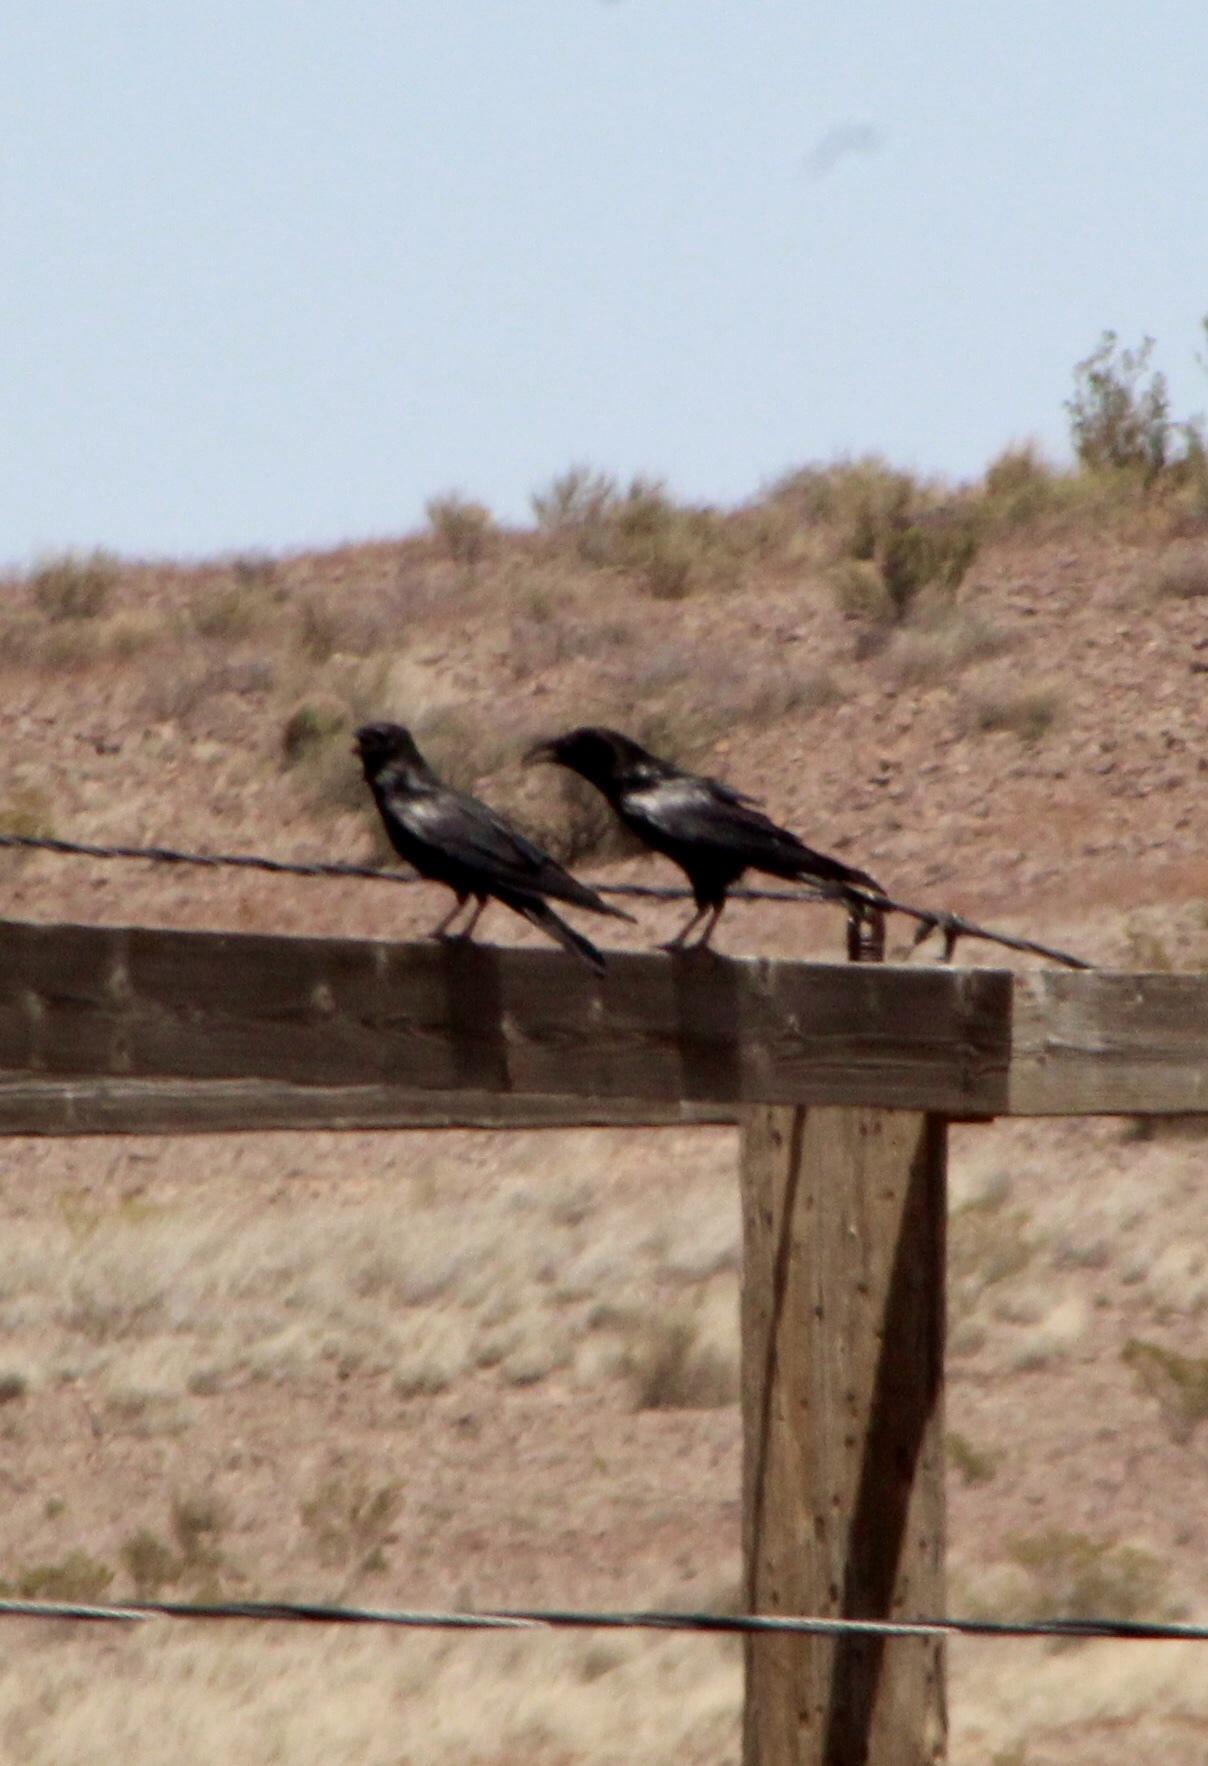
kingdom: Animalia
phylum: Chordata
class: Aves
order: Passeriformes
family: Corvidae
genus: Corvus
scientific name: Corvus cryptoleucus
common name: Chihuahuan raven
